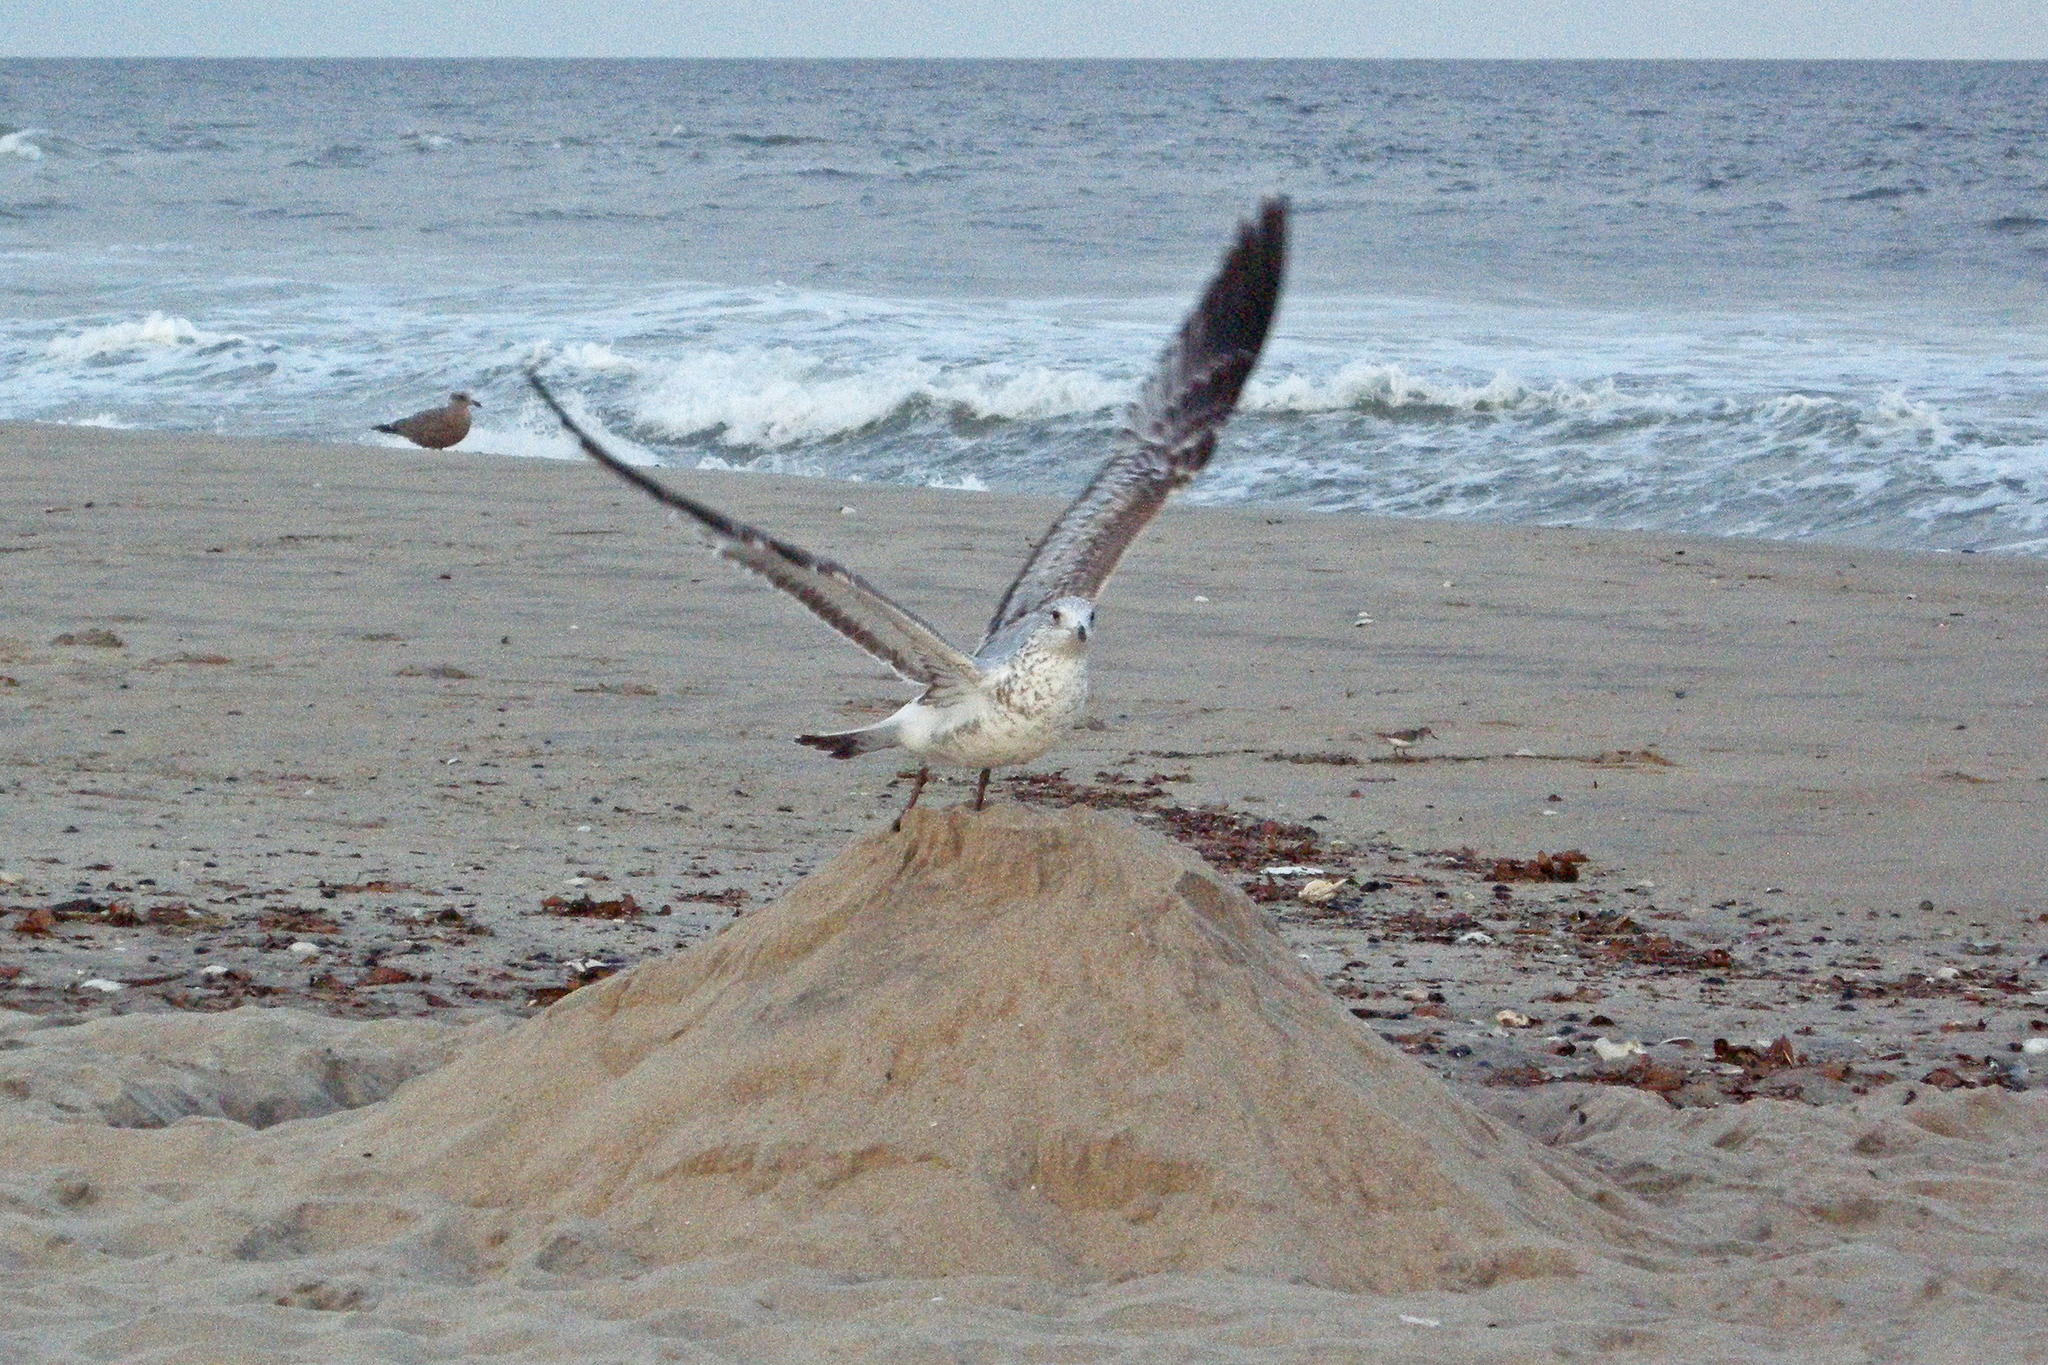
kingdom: Animalia
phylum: Chordata
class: Aves
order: Charadriiformes
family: Laridae
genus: Larus
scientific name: Larus delawarensis
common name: Ring-billed gull
